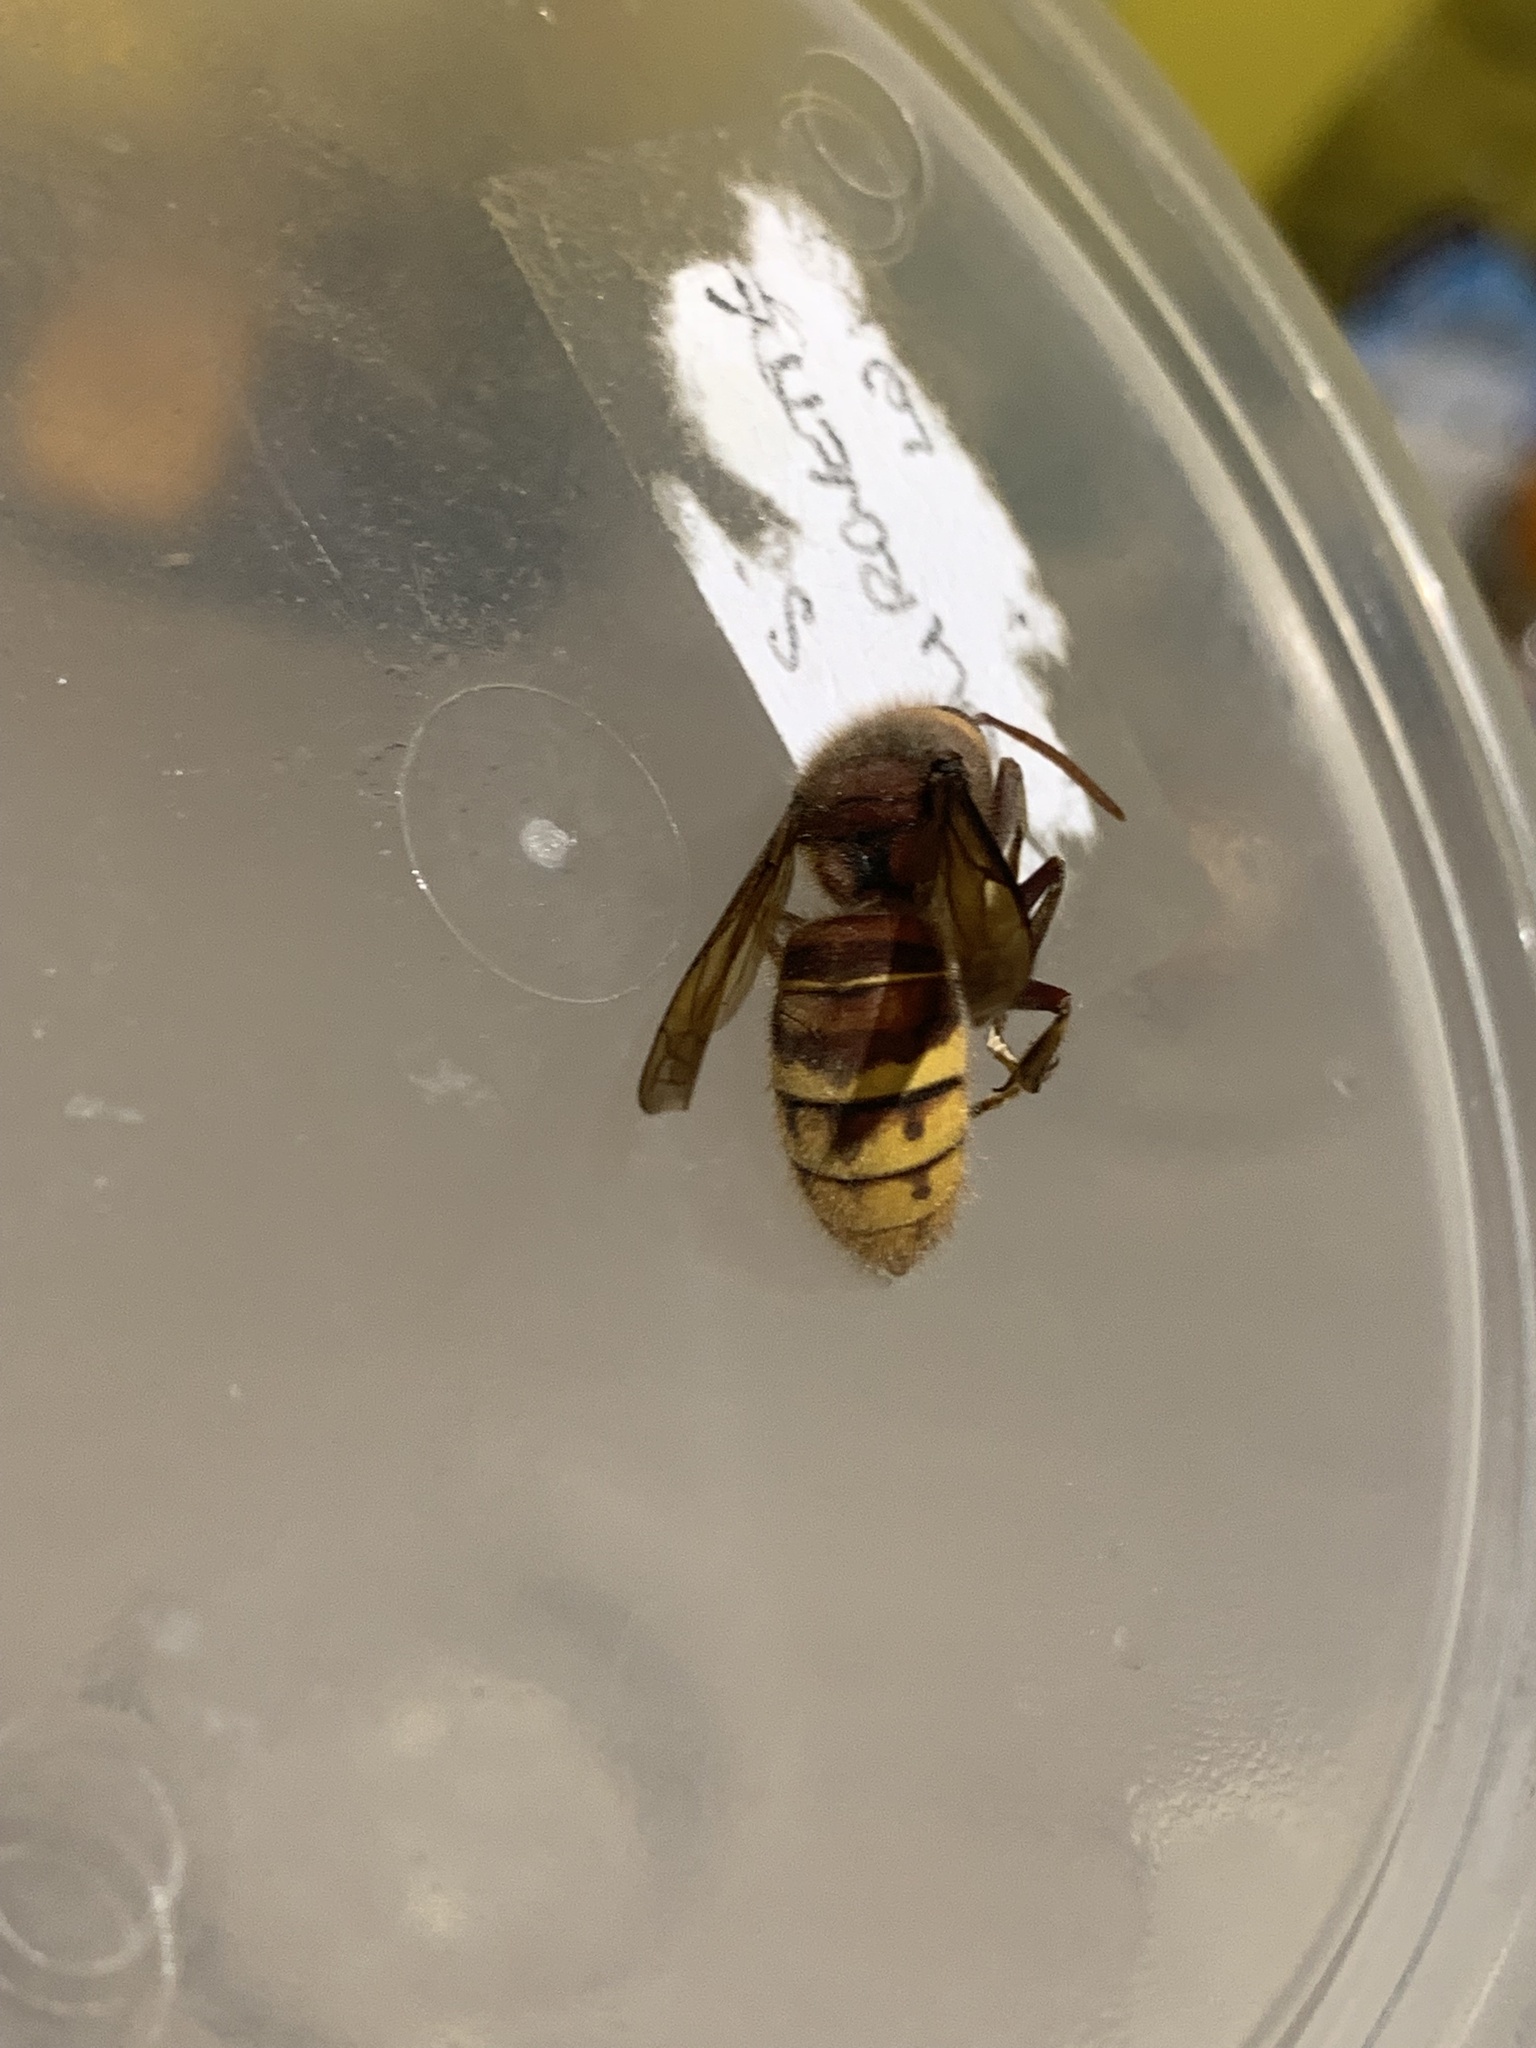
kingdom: Animalia
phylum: Arthropoda
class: Insecta
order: Hymenoptera
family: Vespidae
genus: Vespa
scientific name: Vespa crabro
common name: Hornet
